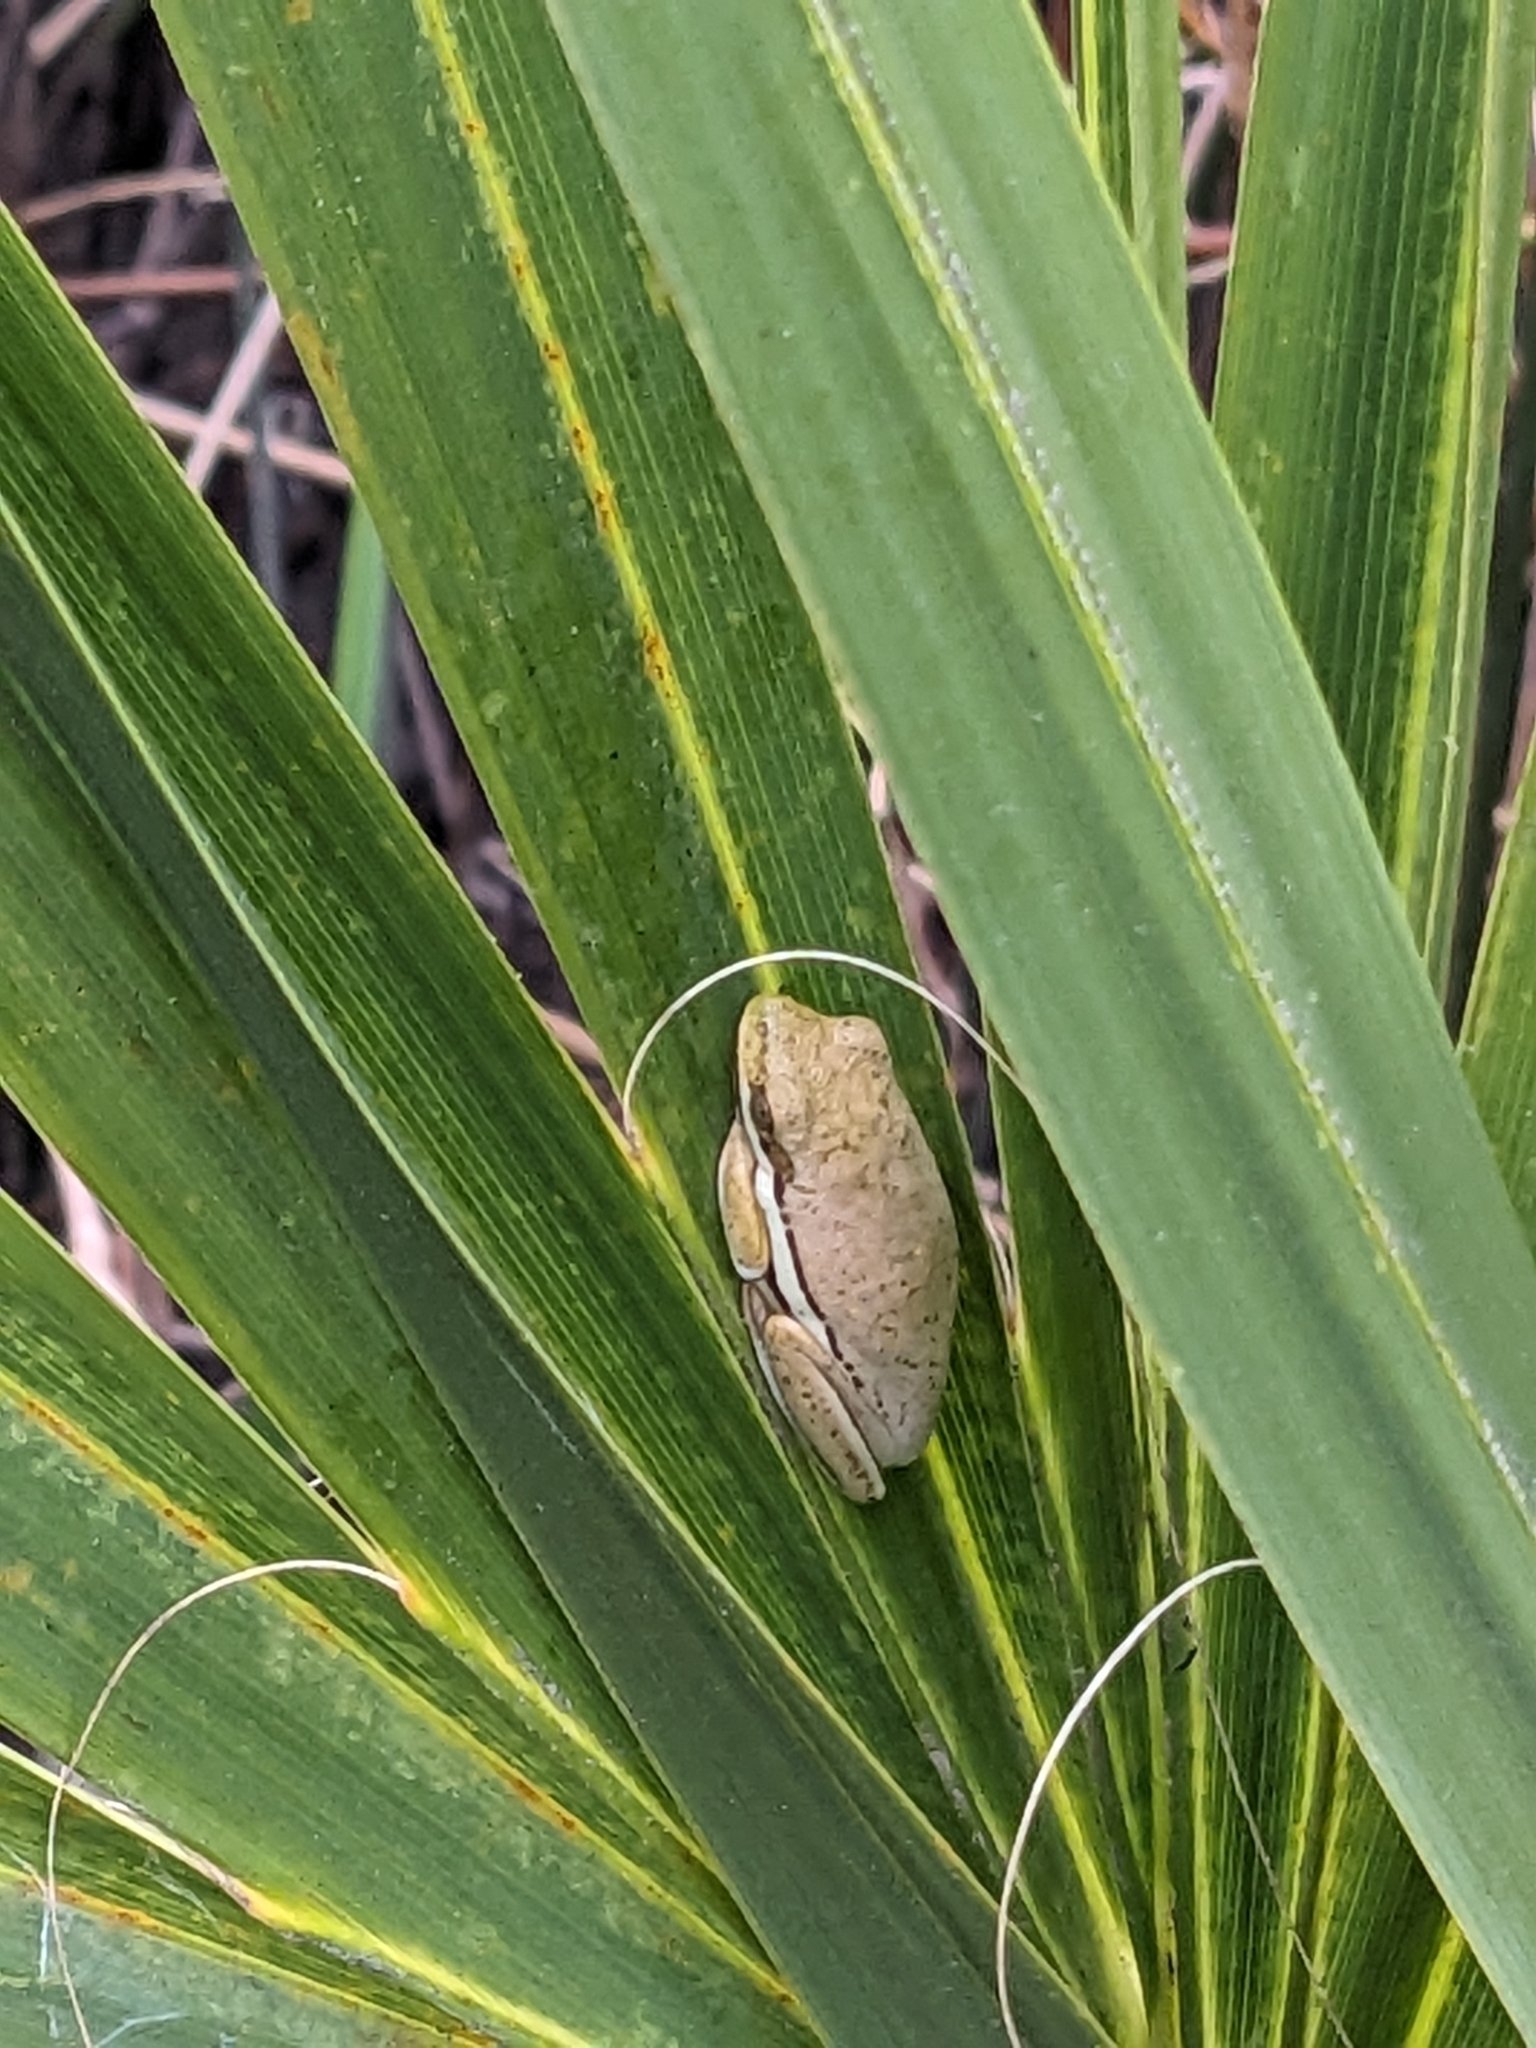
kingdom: Animalia
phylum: Chordata
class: Amphibia
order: Anura
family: Hylidae
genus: Dryophytes
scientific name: Dryophytes cinereus
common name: Green treefrog
